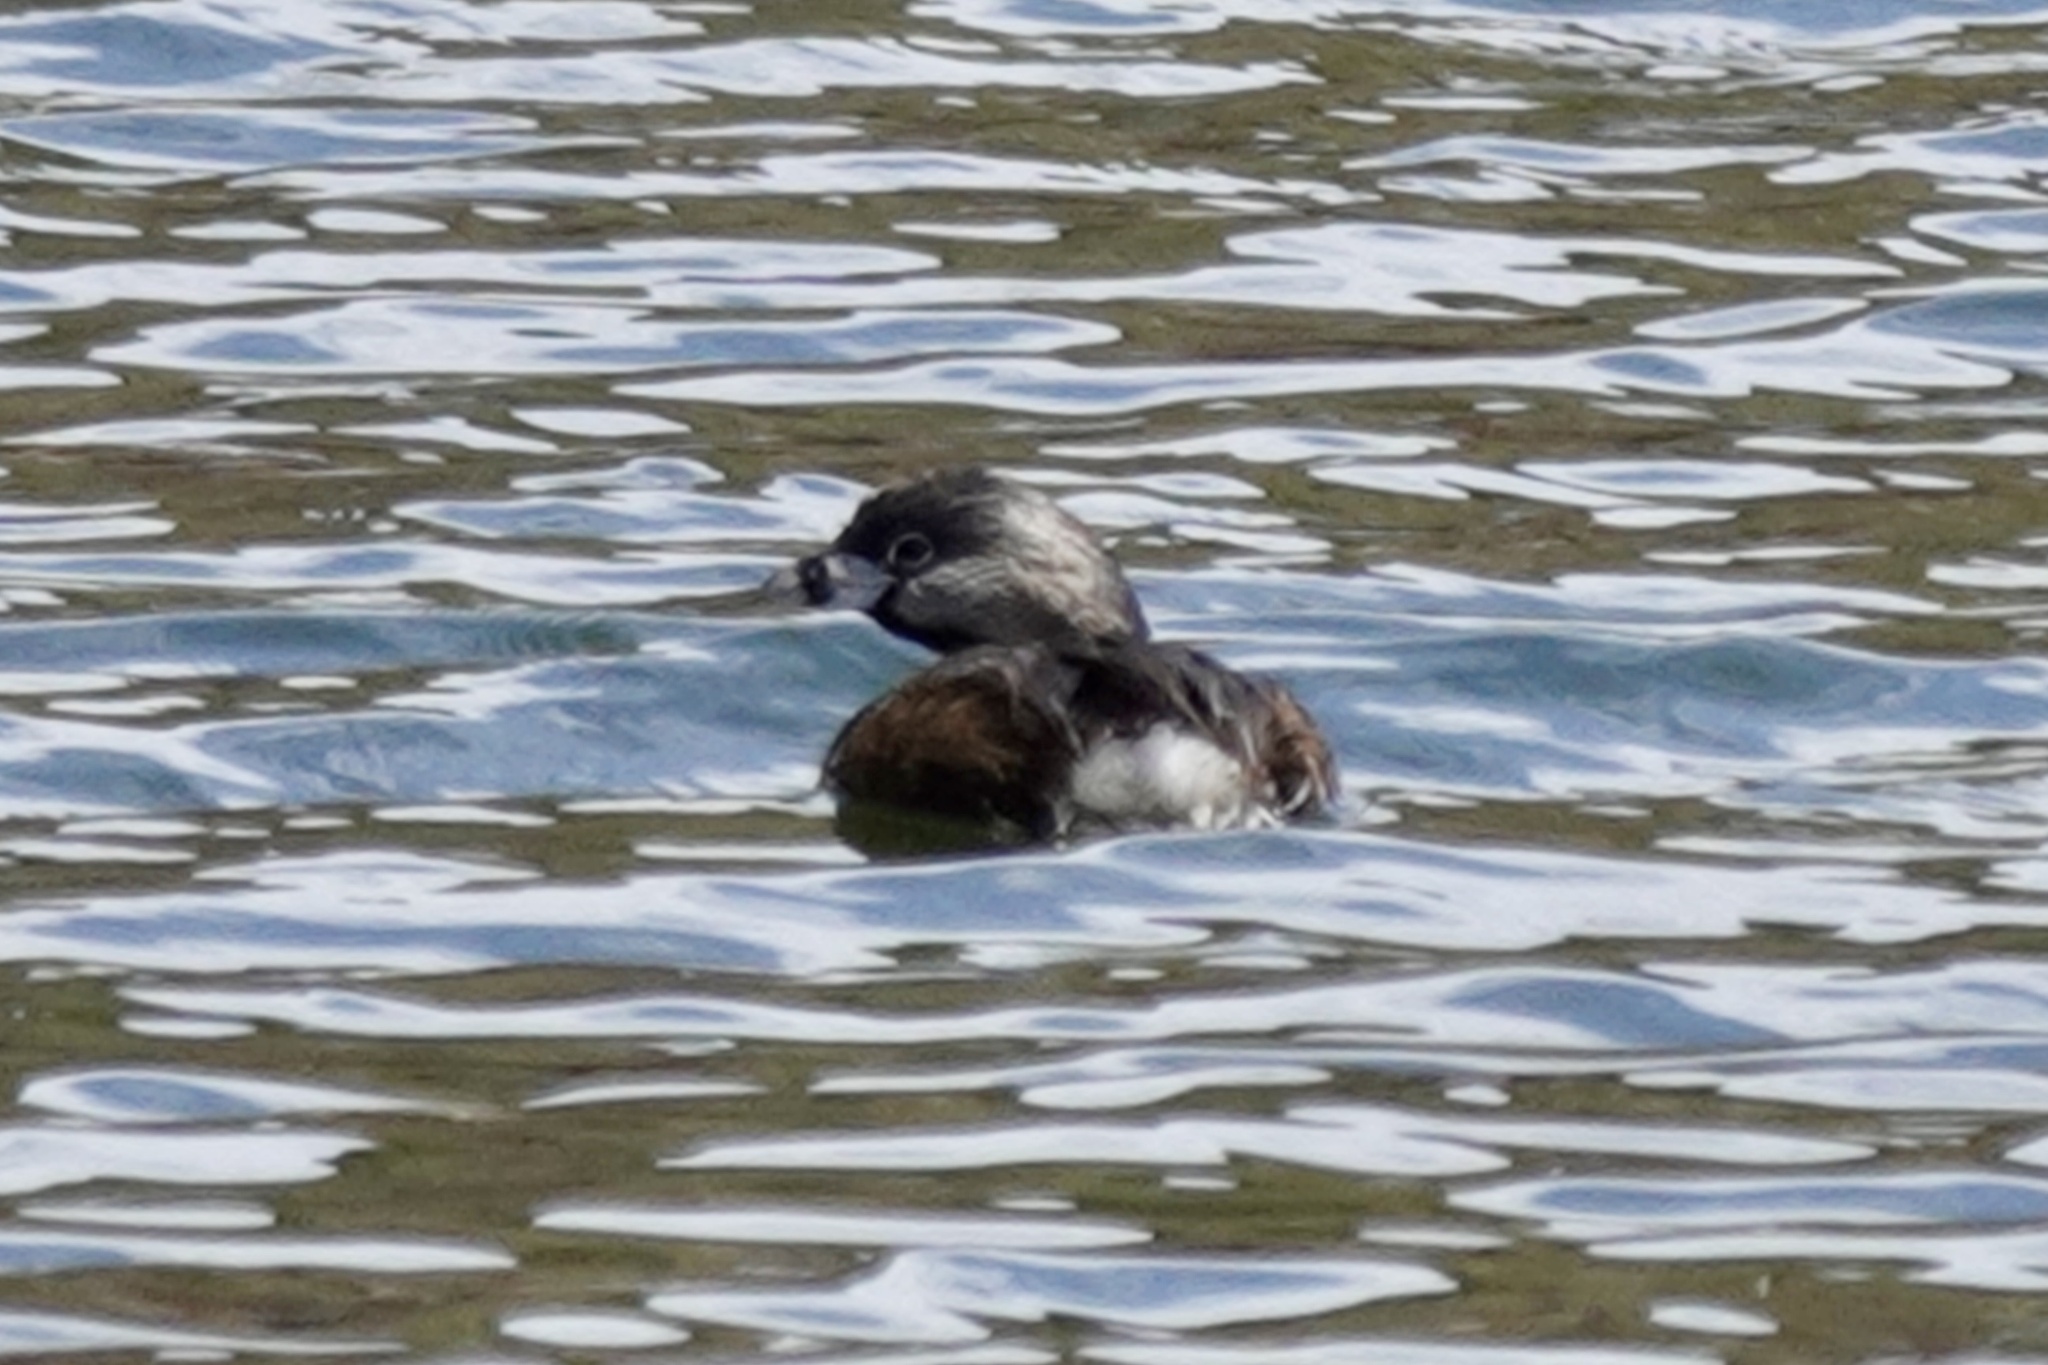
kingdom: Animalia
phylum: Chordata
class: Aves
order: Podicipediformes
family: Podicipedidae
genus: Podilymbus
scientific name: Podilymbus podiceps
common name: Pied-billed grebe
